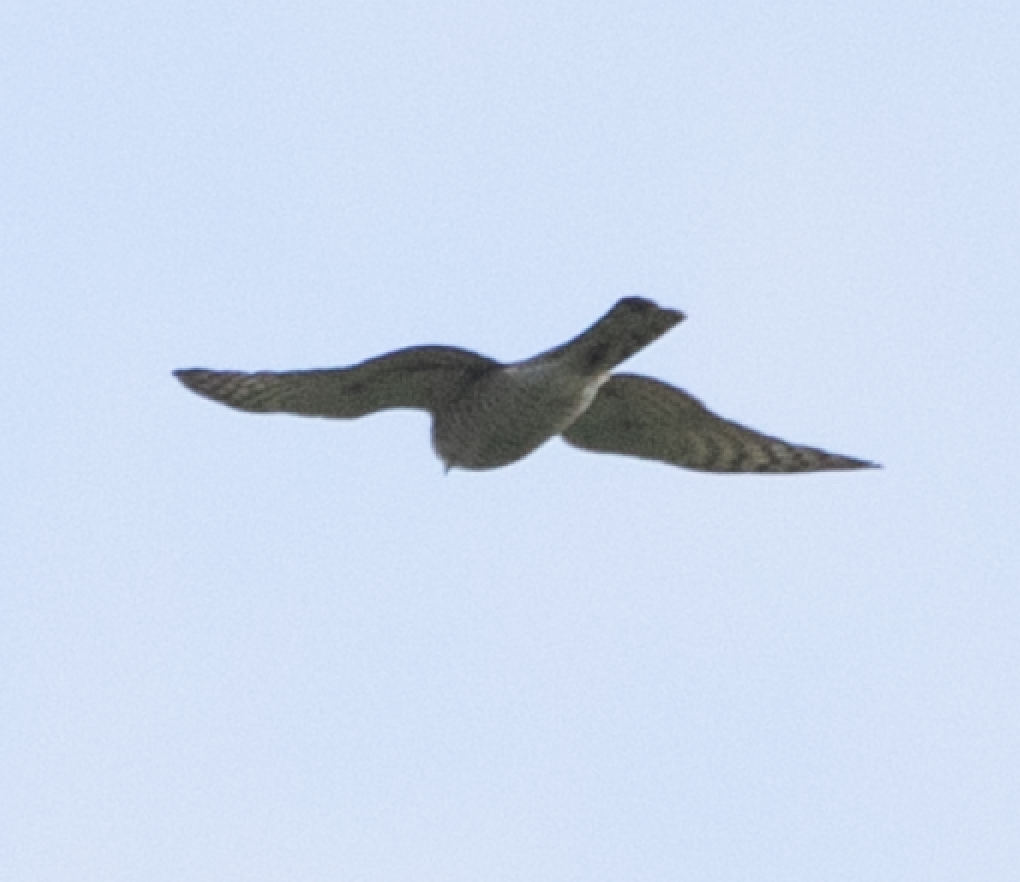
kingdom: Animalia
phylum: Chordata
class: Aves
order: Accipitriformes
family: Accipitridae
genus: Accipiter
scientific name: Accipiter gentilis
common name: Northern goshawk
